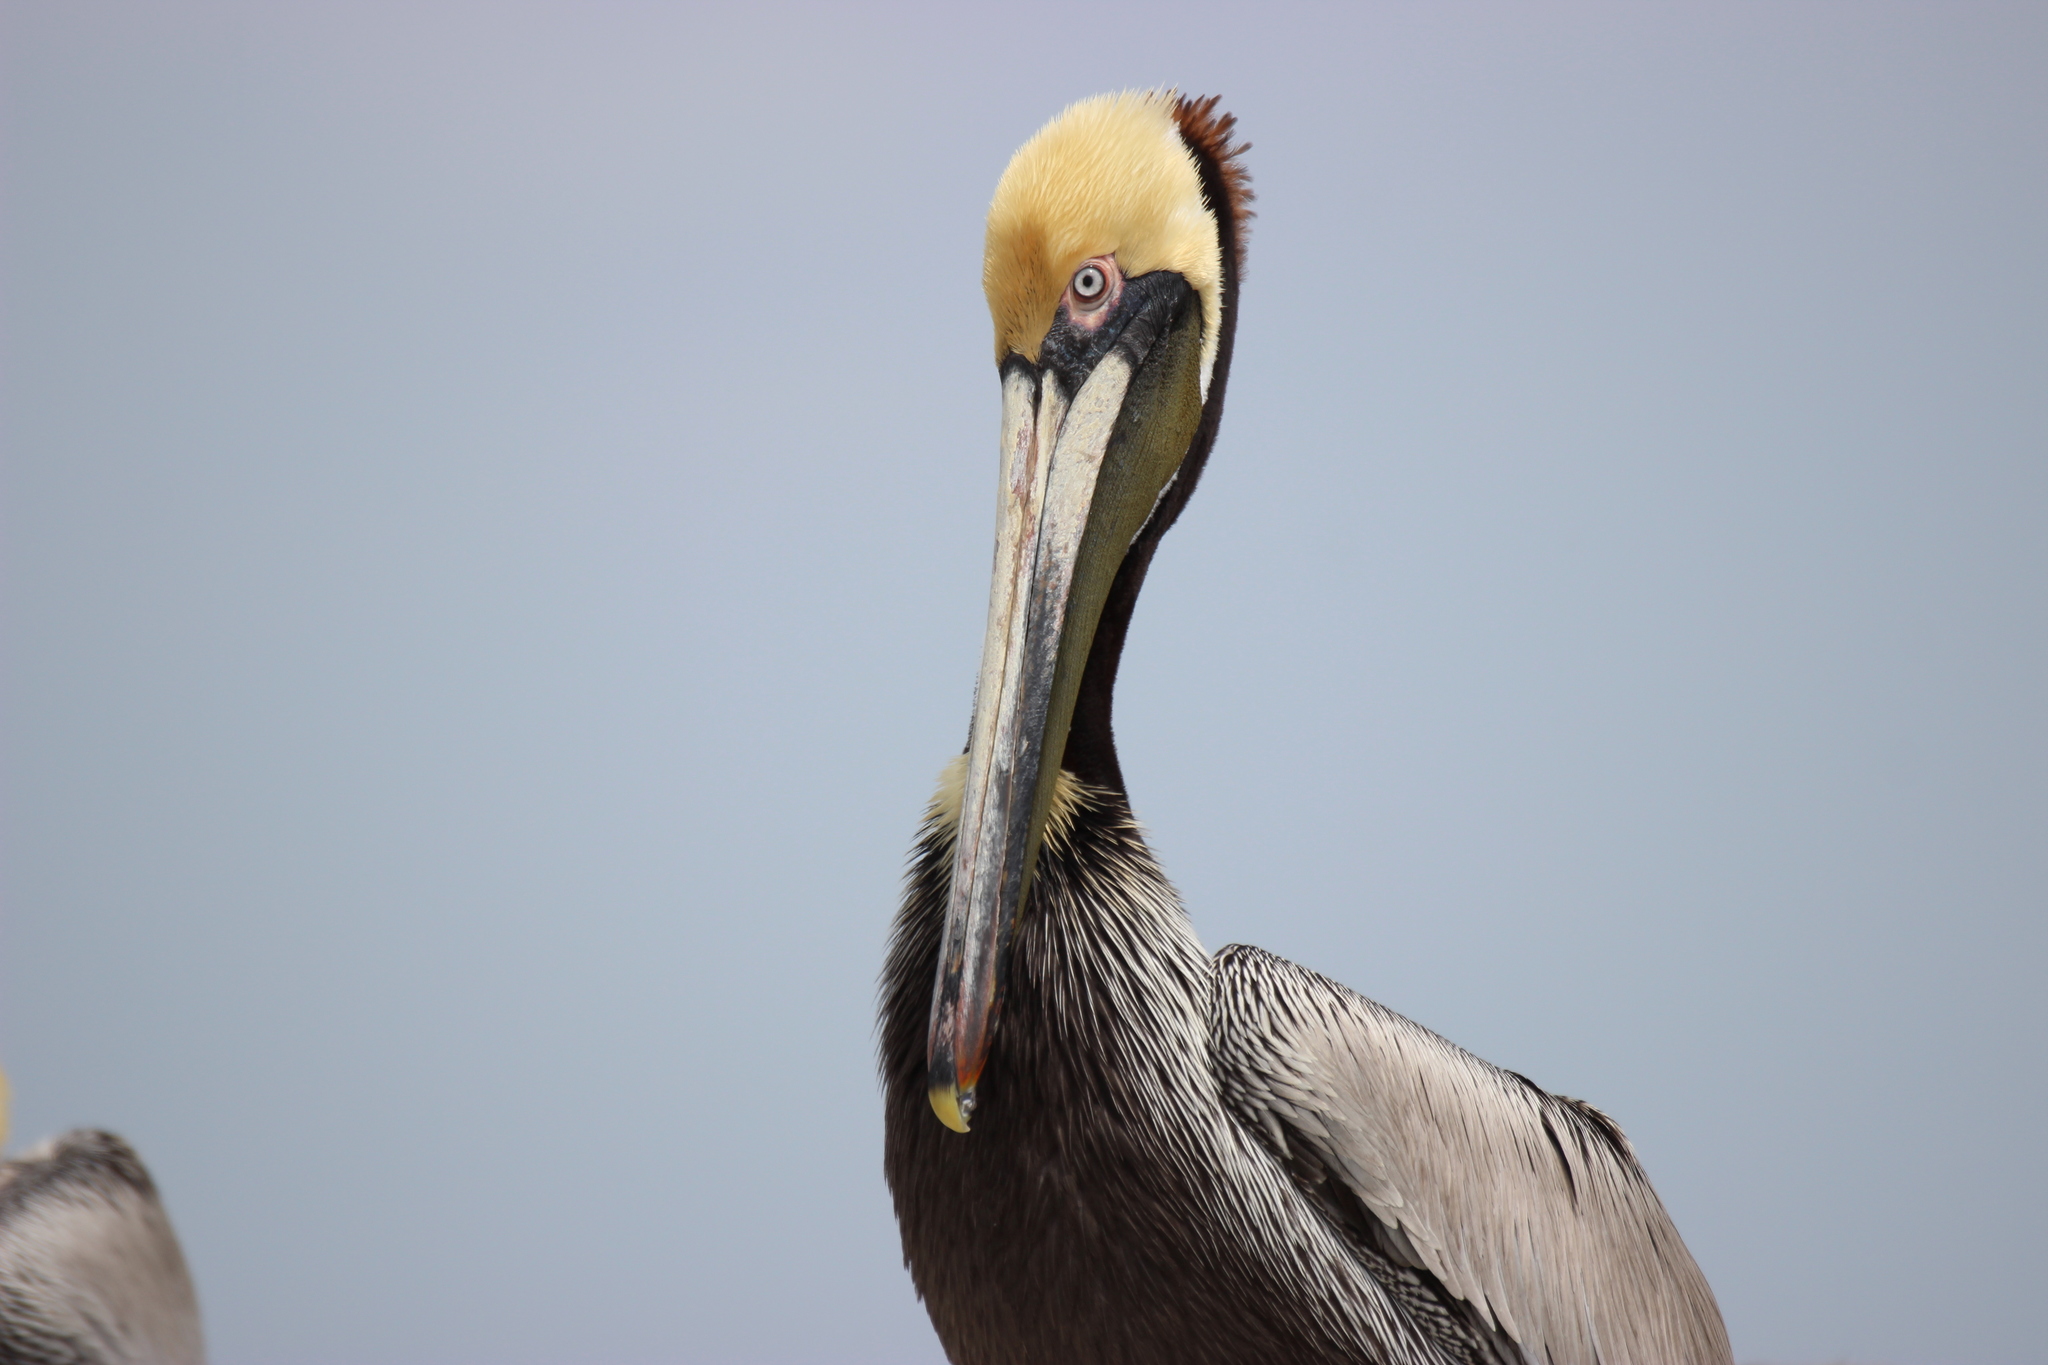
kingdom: Animalia
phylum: Chordata
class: Aves
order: Pelecaniformes
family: Pelecanidae
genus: Pelecanus
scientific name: Pelecanus occidentalis
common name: Brown pelican
